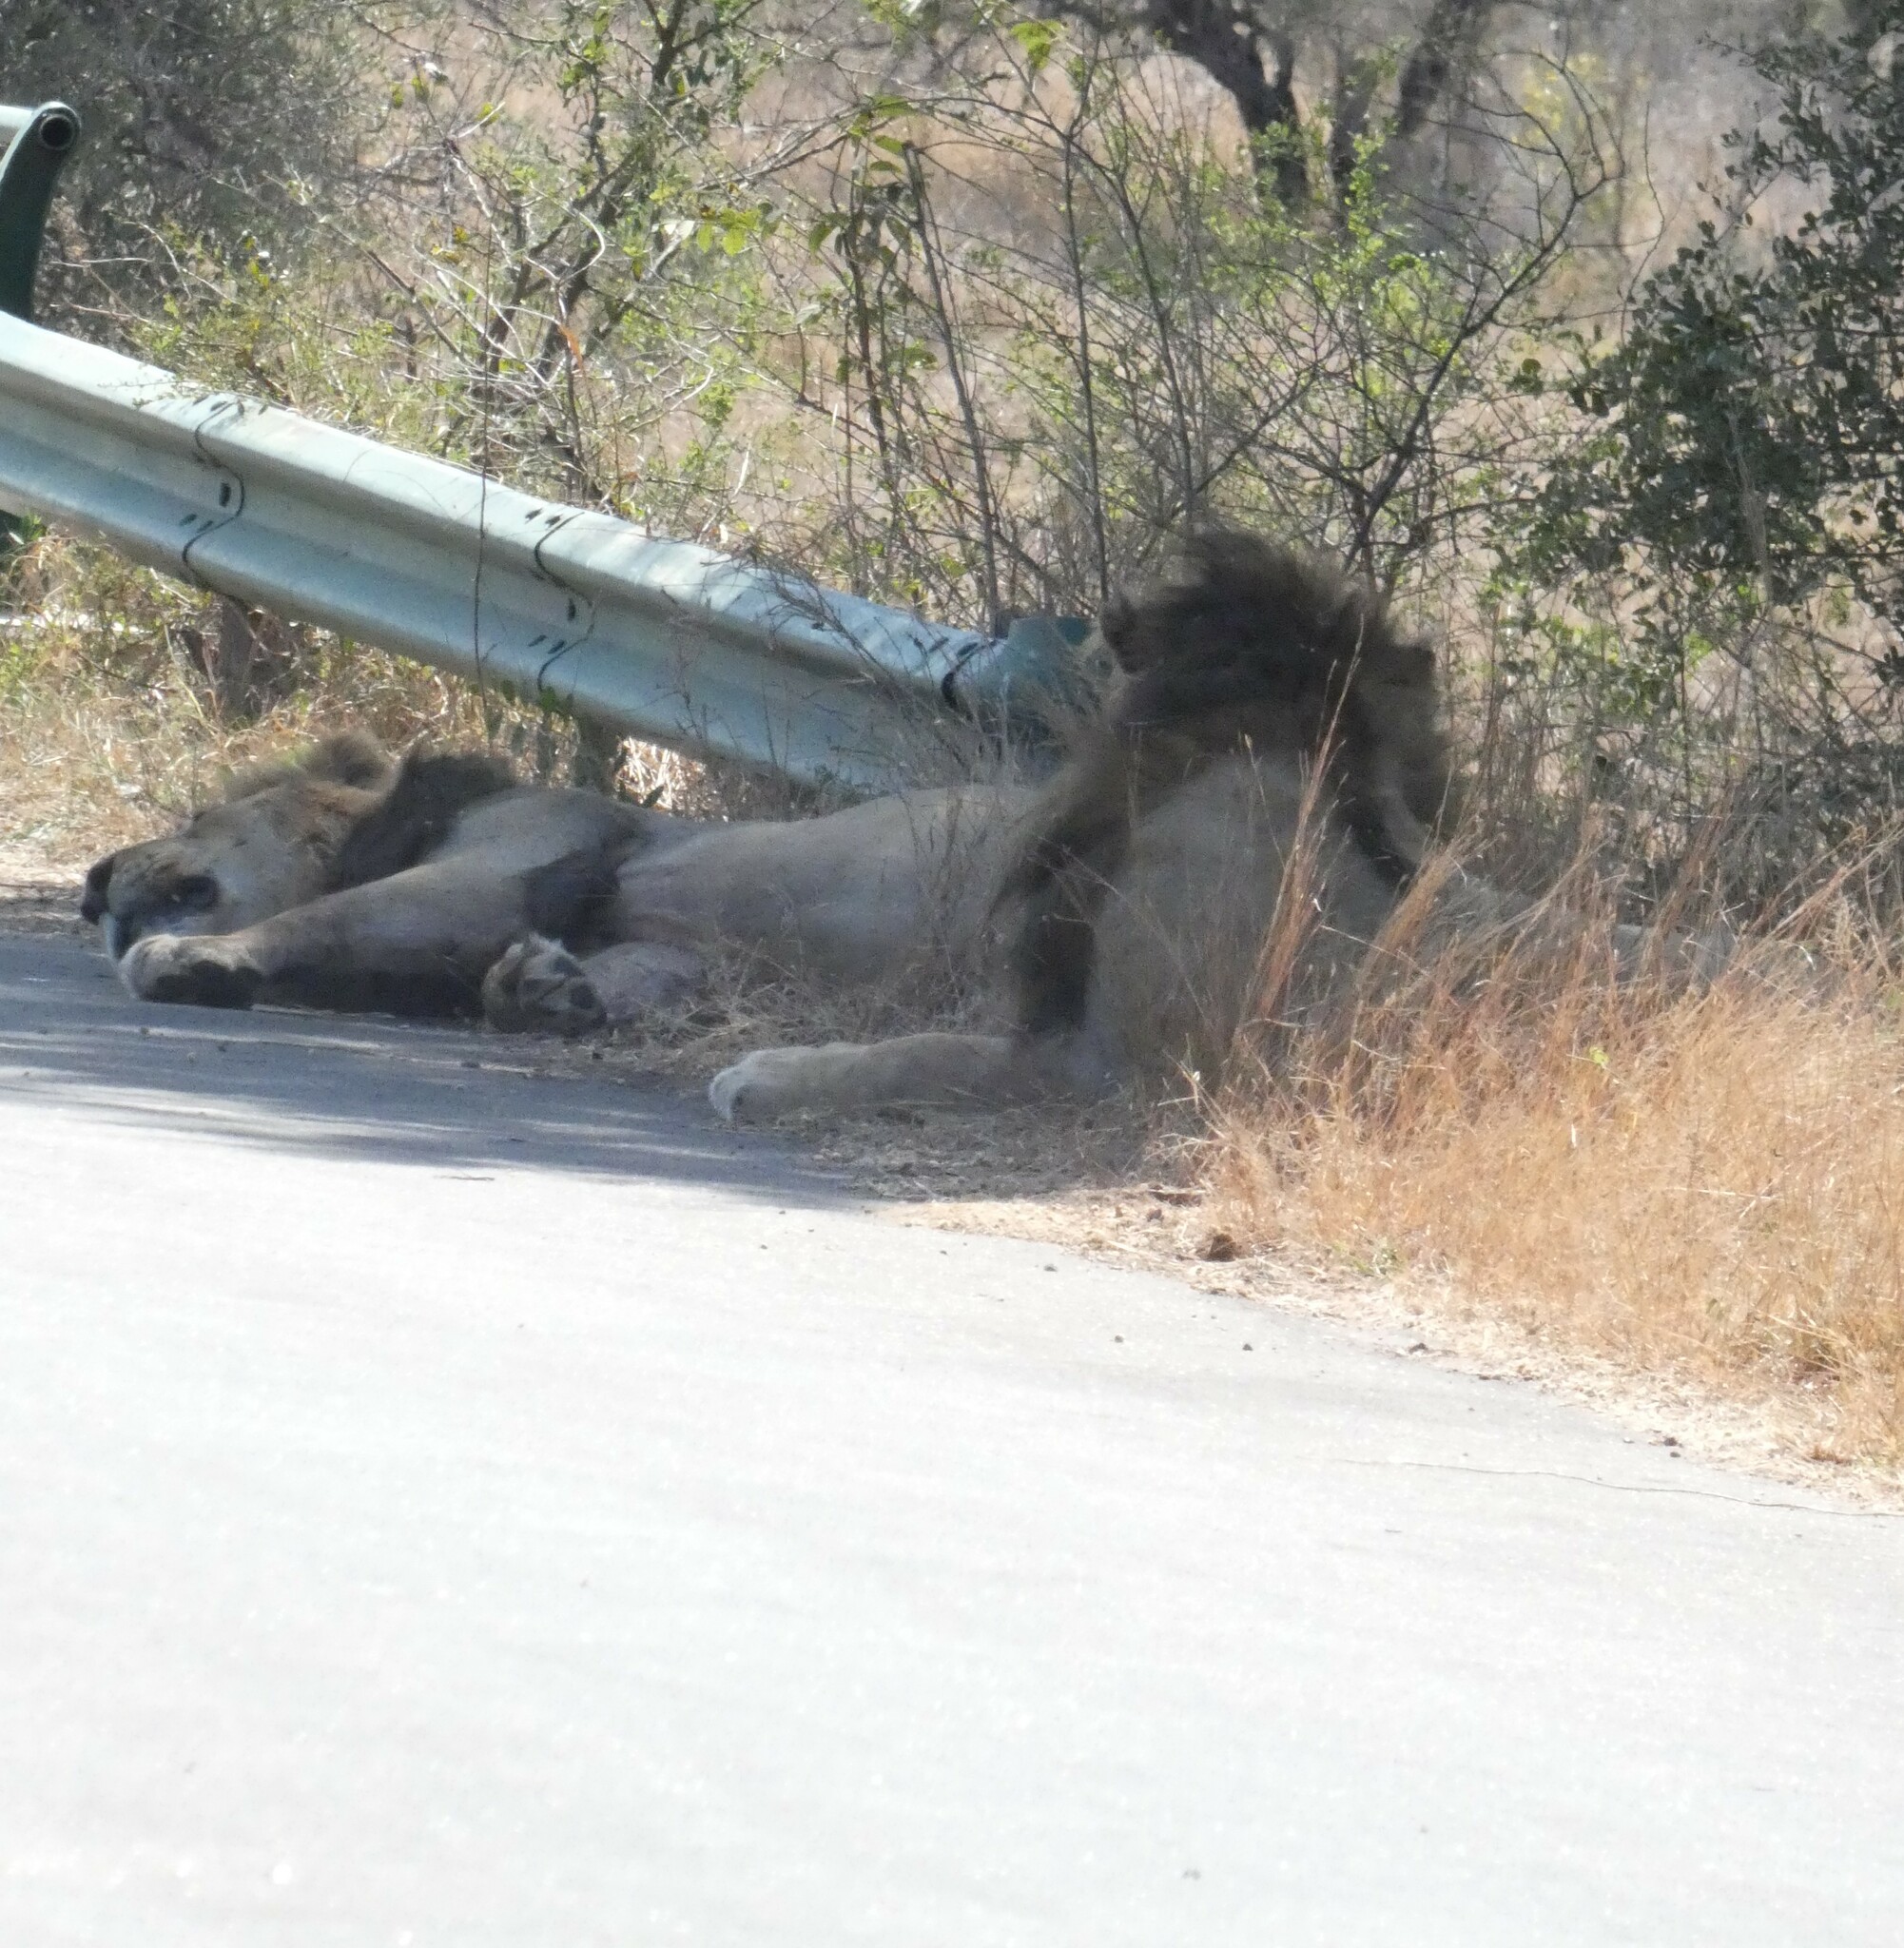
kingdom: Animalia
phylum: Chordata
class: Mammalia
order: Carnivora
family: Felidae
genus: Panthera
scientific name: Panthera leo
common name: Lion
